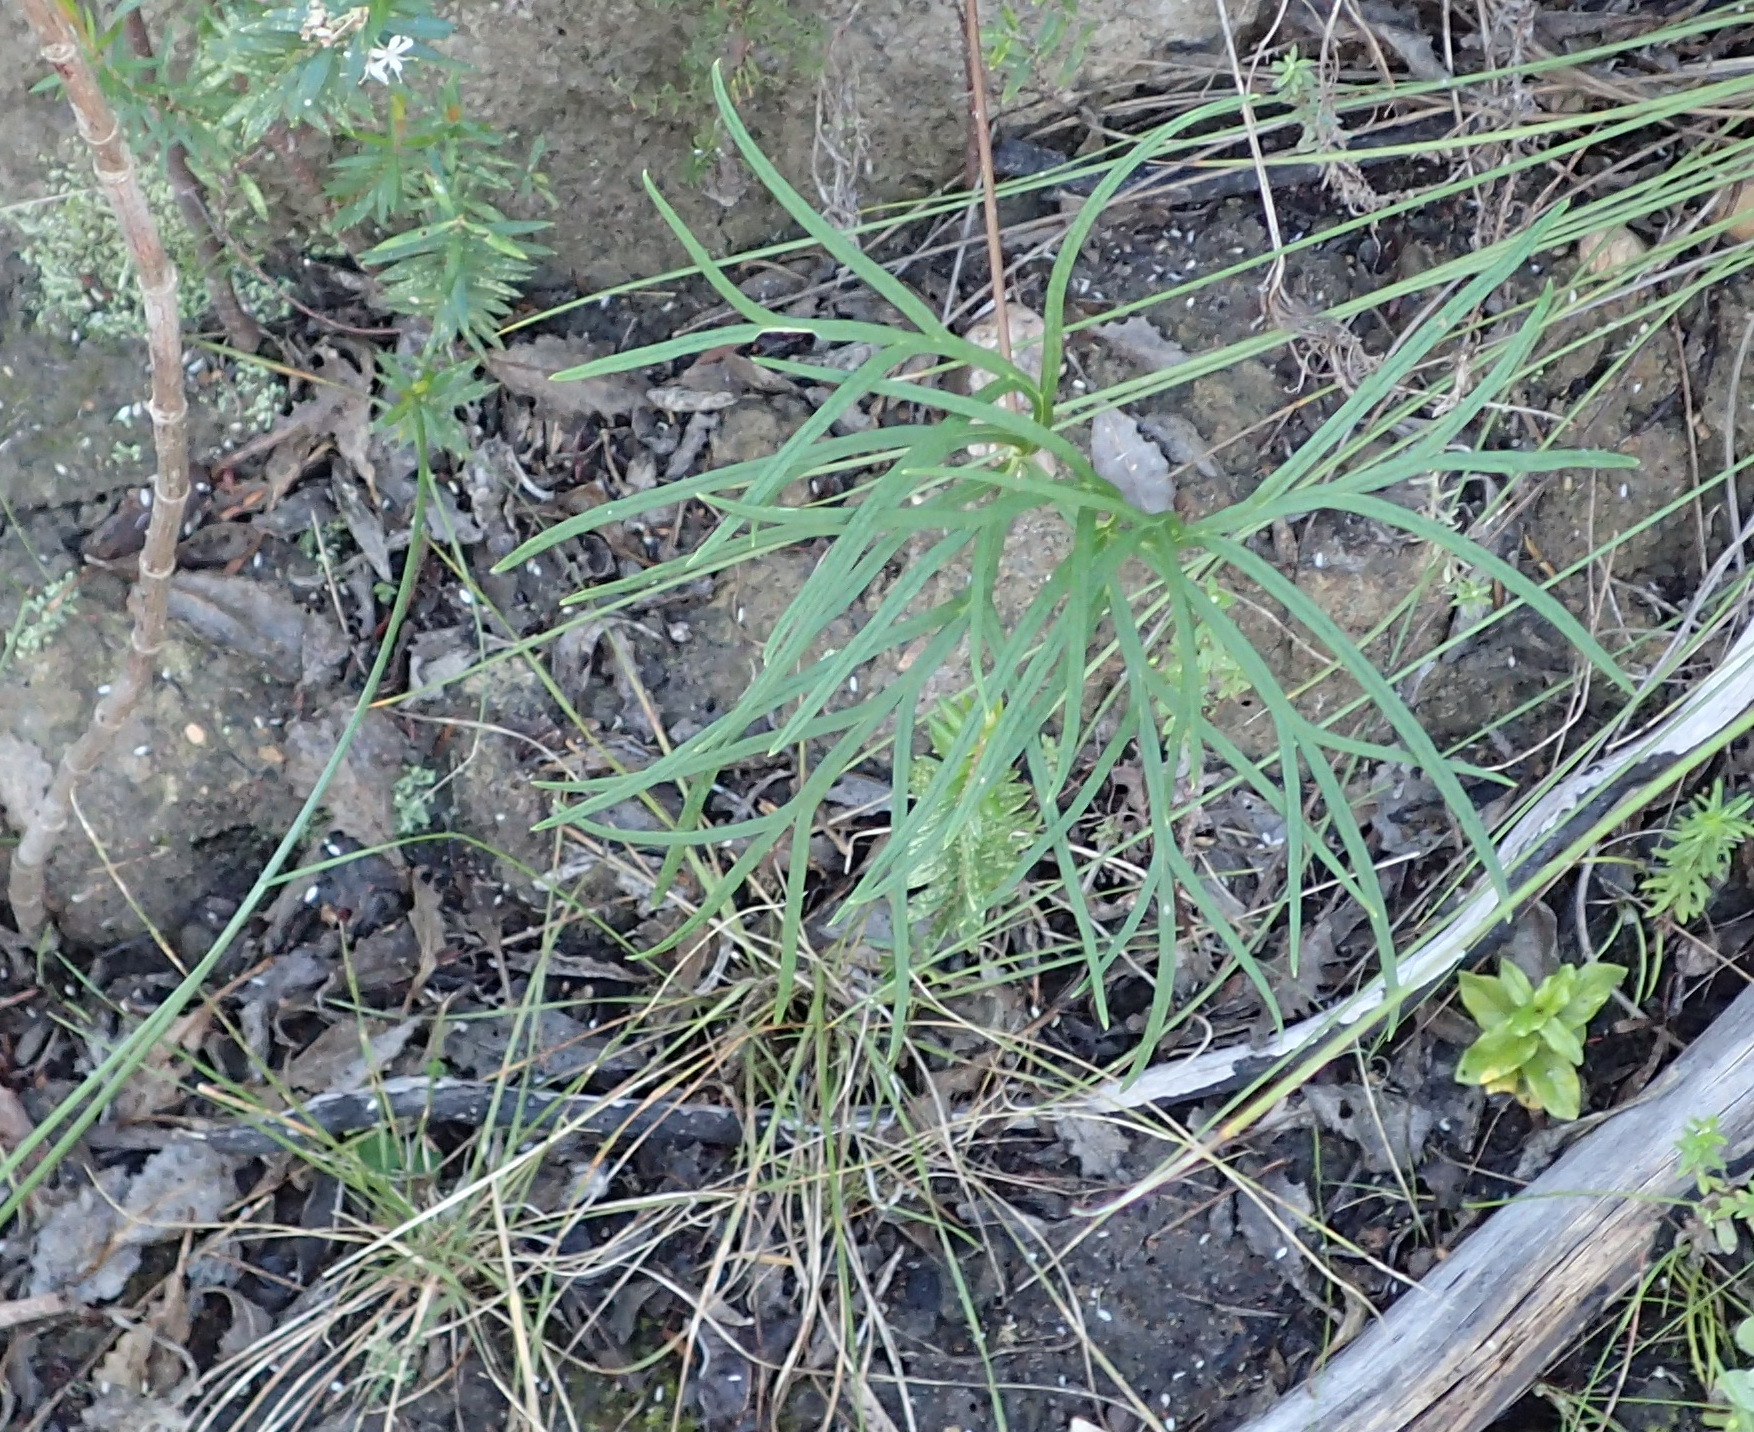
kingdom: Plantae
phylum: Tracheophyta
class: Magnoliopsida
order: Geraniales
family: Geraniaceae
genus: Pelargonium
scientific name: Pelargonium caffrum
